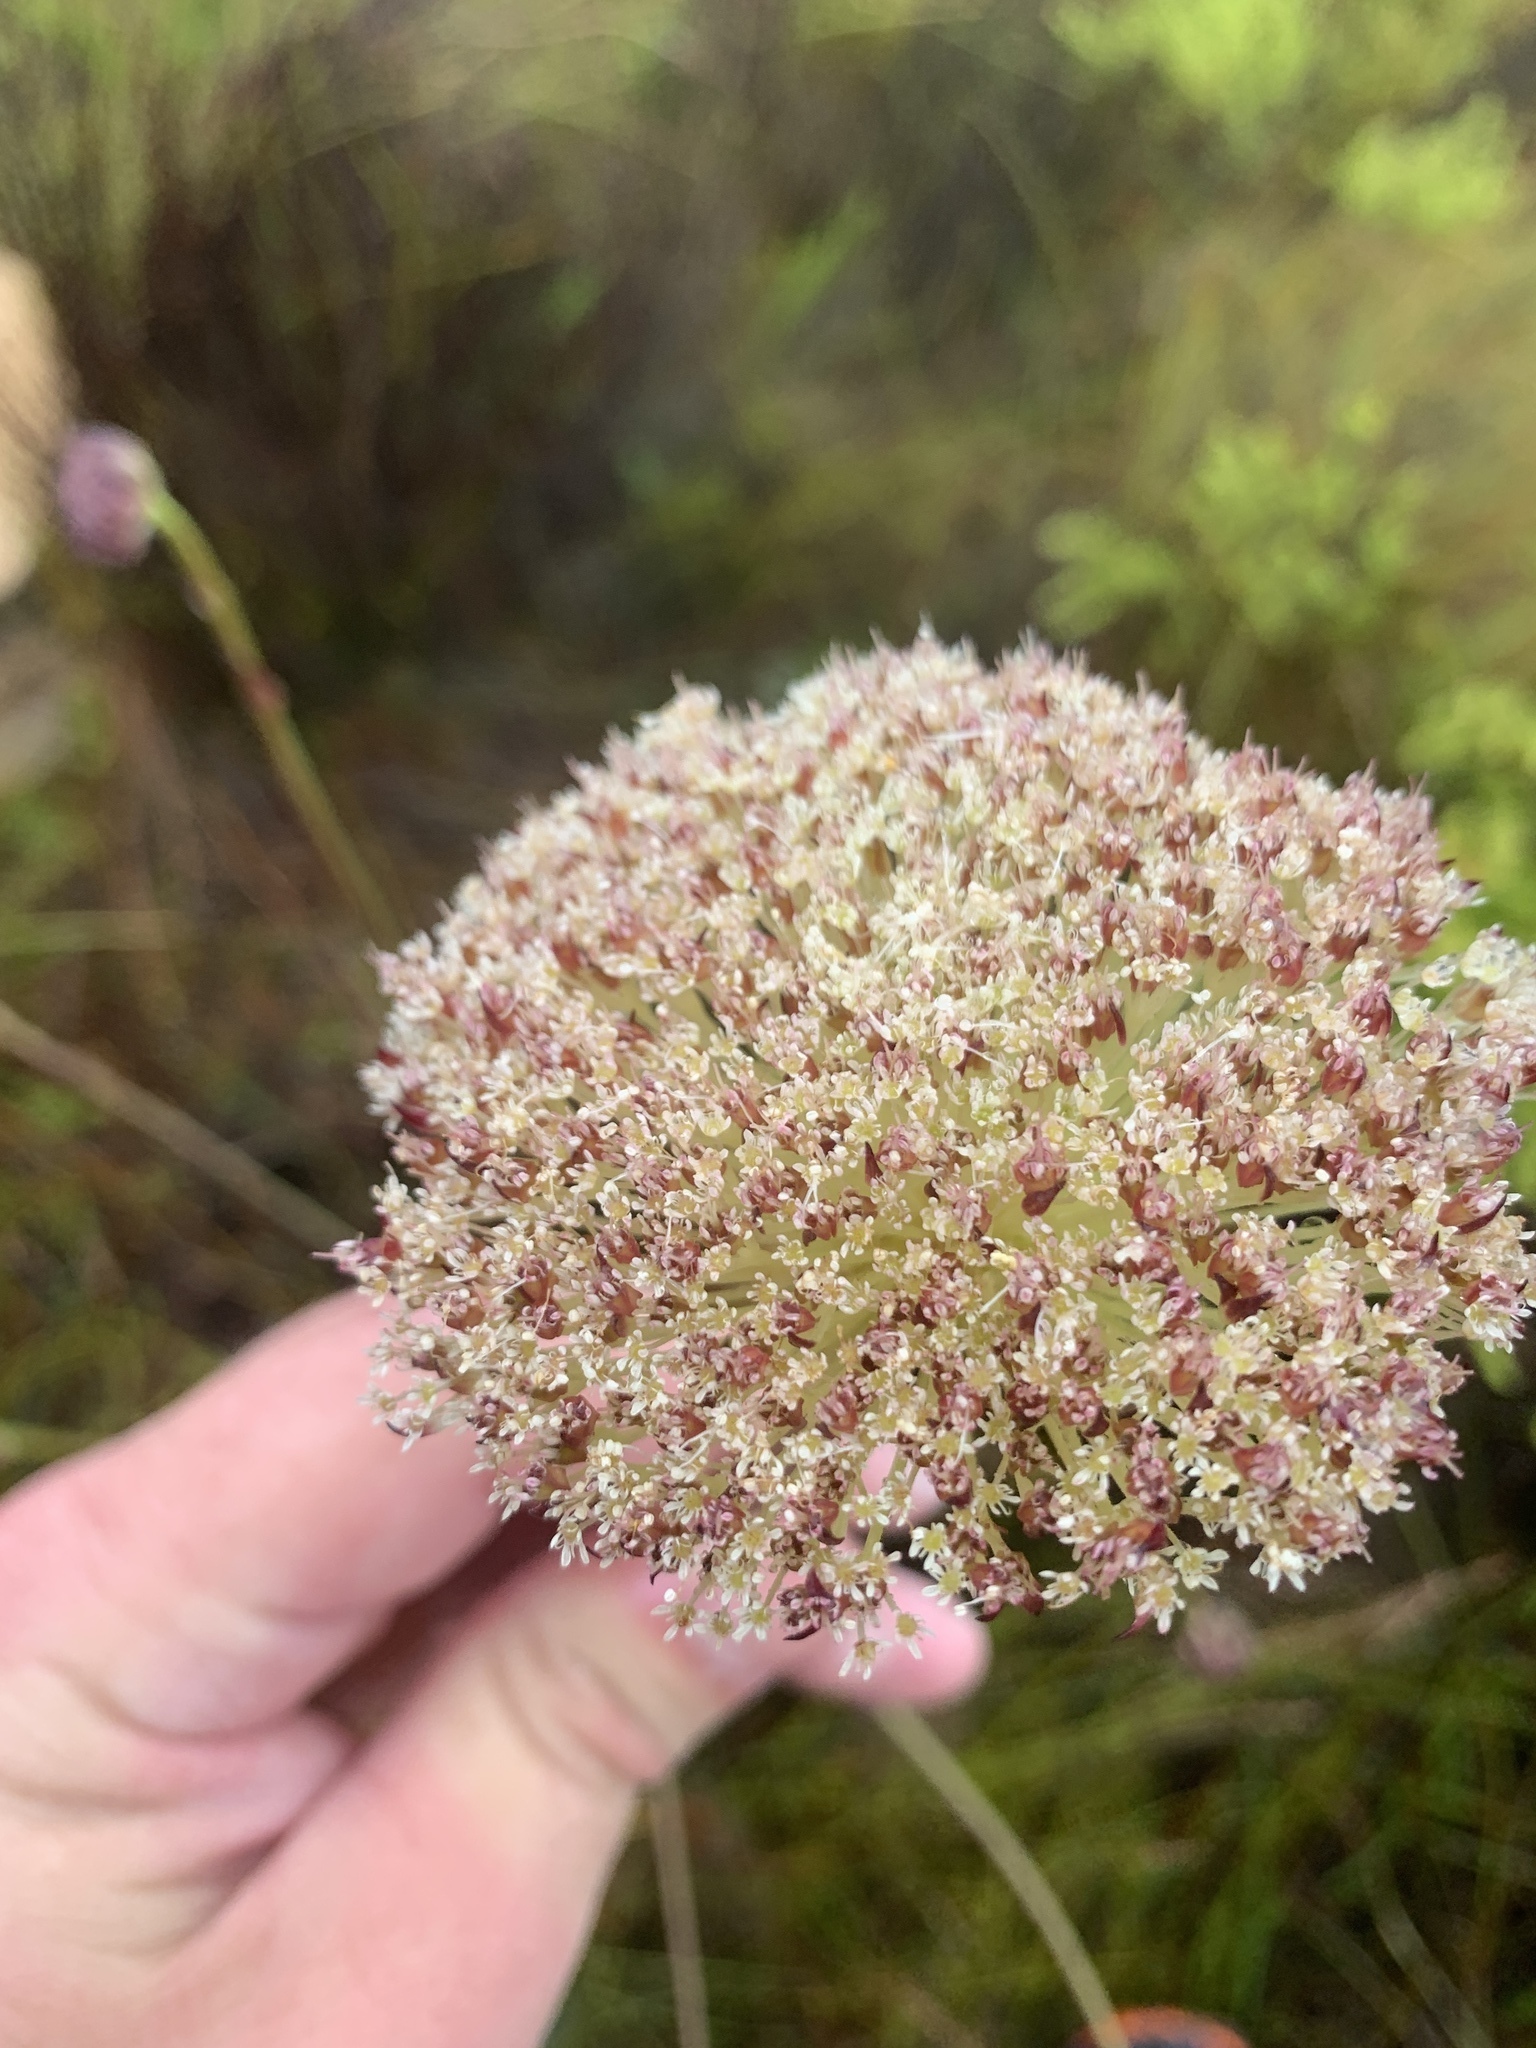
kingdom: Plantae
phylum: Tracheophyta
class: Magnoliopsida
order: Apiales
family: Apiaceae
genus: Hermas
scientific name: Hermas ciliata
